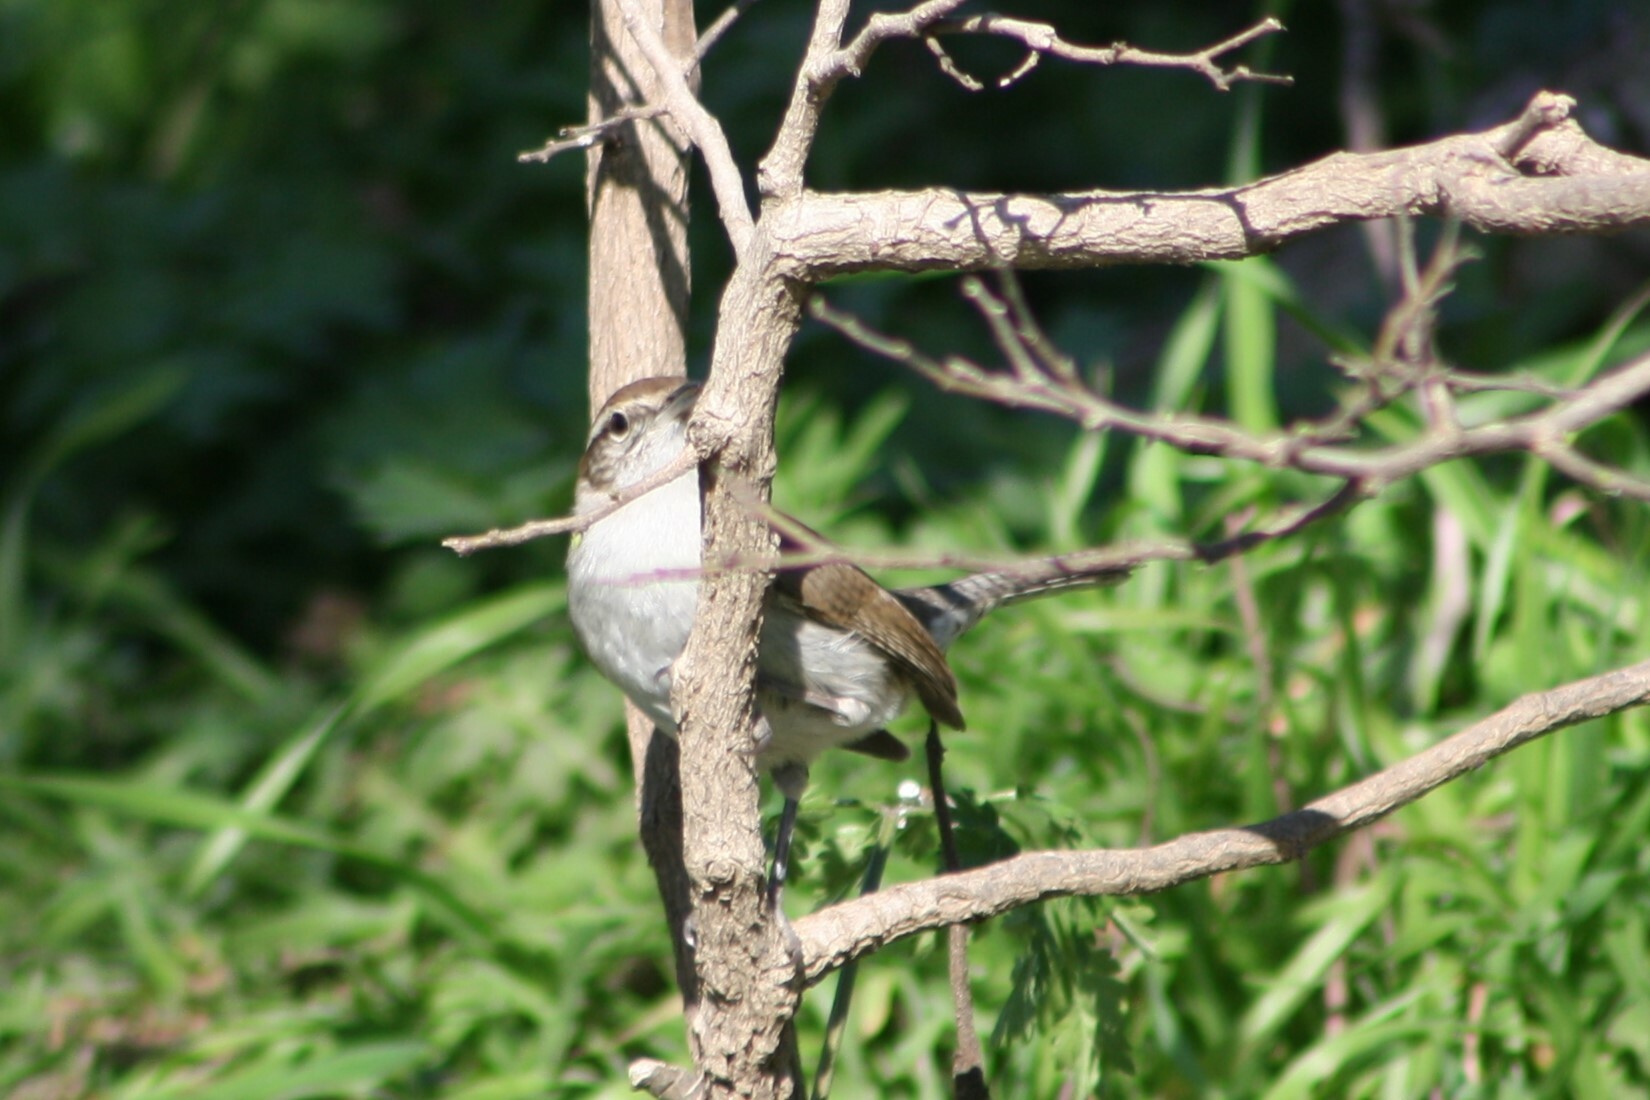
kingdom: Animalia
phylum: Chordata
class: Aves
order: Passeriformes
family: Troglodytidae
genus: Thryomanes
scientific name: Thryomanes bewickii
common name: Bewick's wren
